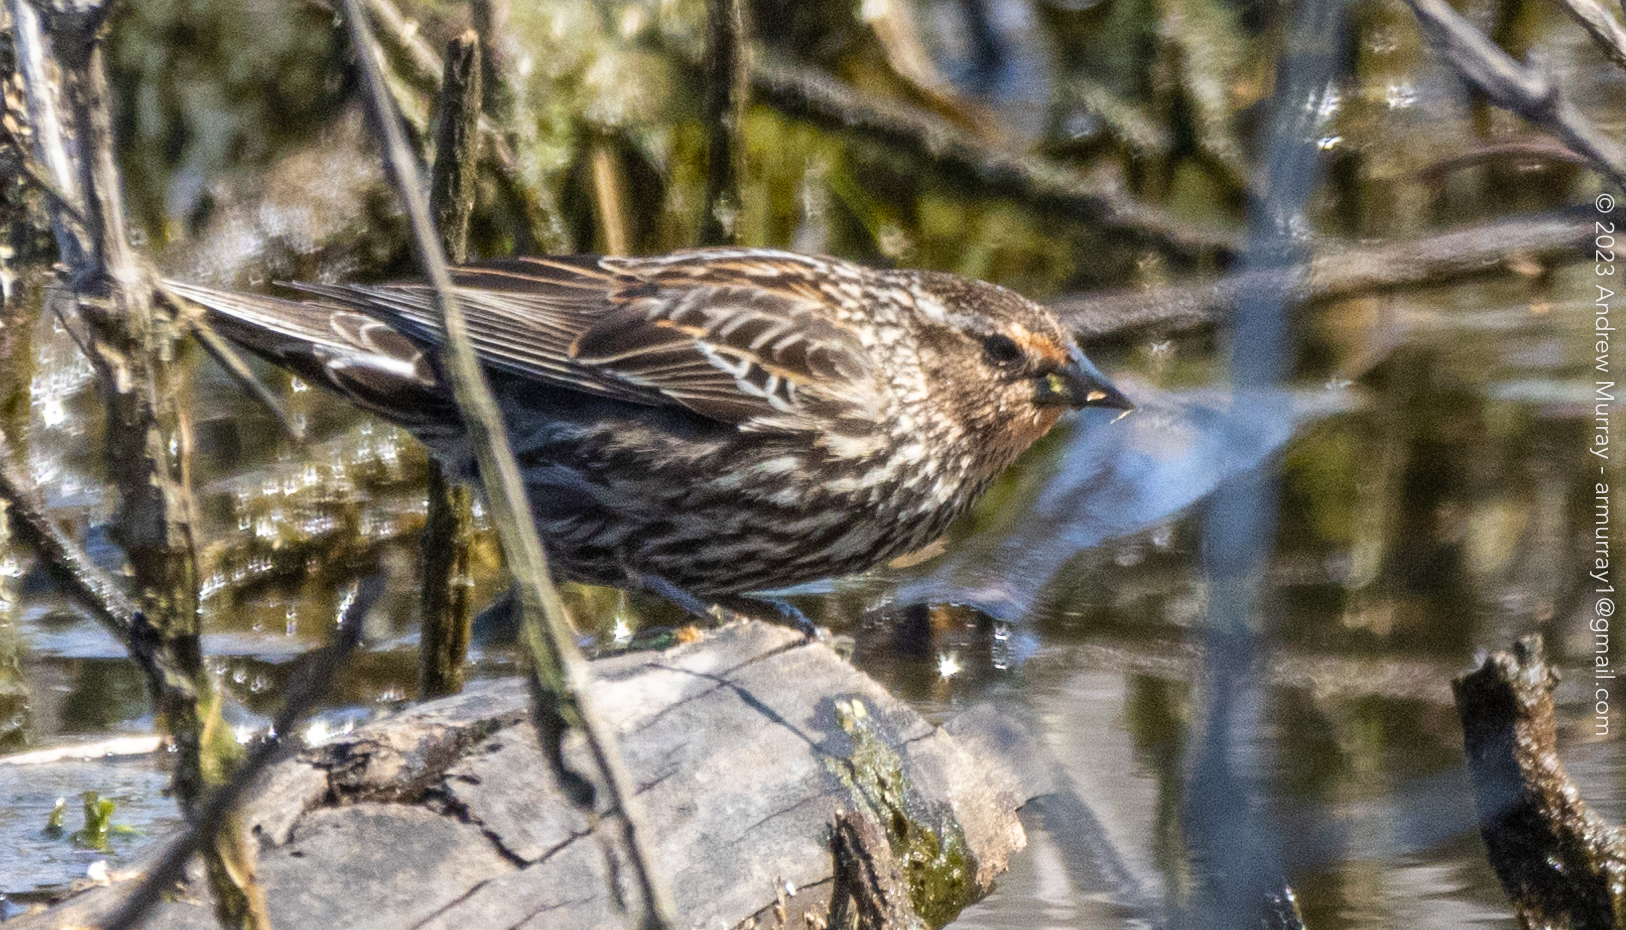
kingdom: Animalia
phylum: Chordata
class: Aves
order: Passeriformes
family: Icteridae
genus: Agelaius
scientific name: Agelaius phoeniceus
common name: Red-winged blackbird
